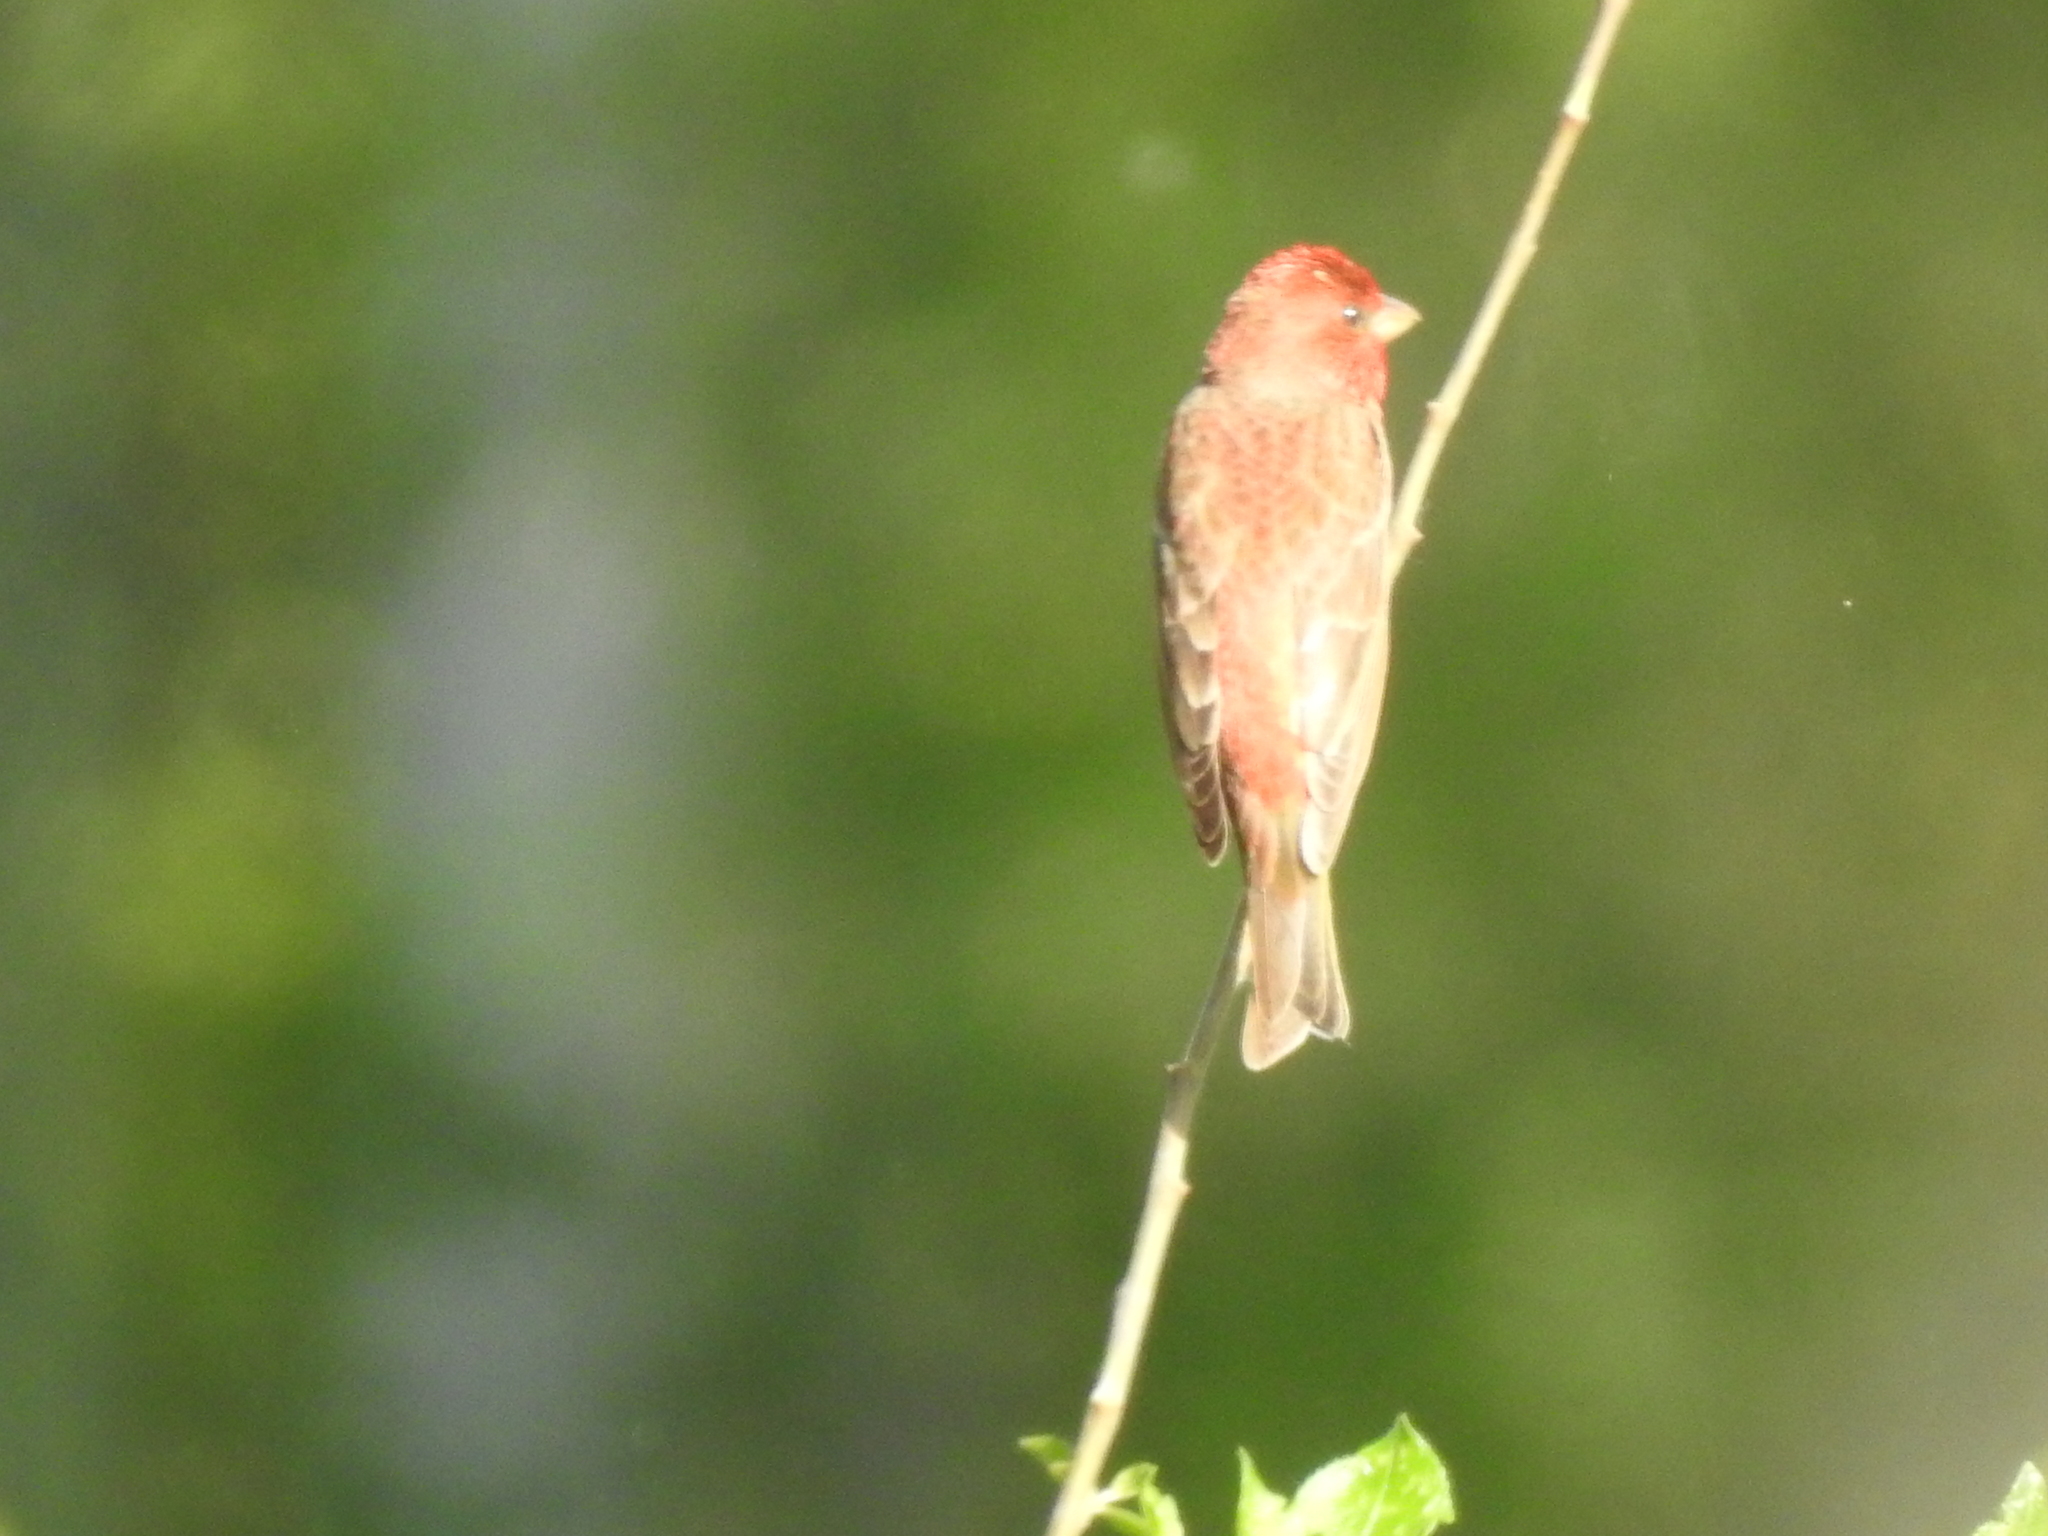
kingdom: Animalia
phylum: Chordata
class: Aves
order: Passeriformes
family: Fringillidae
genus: Carpodacus
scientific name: Carpodacus erythrinus
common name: Common rosefinch
